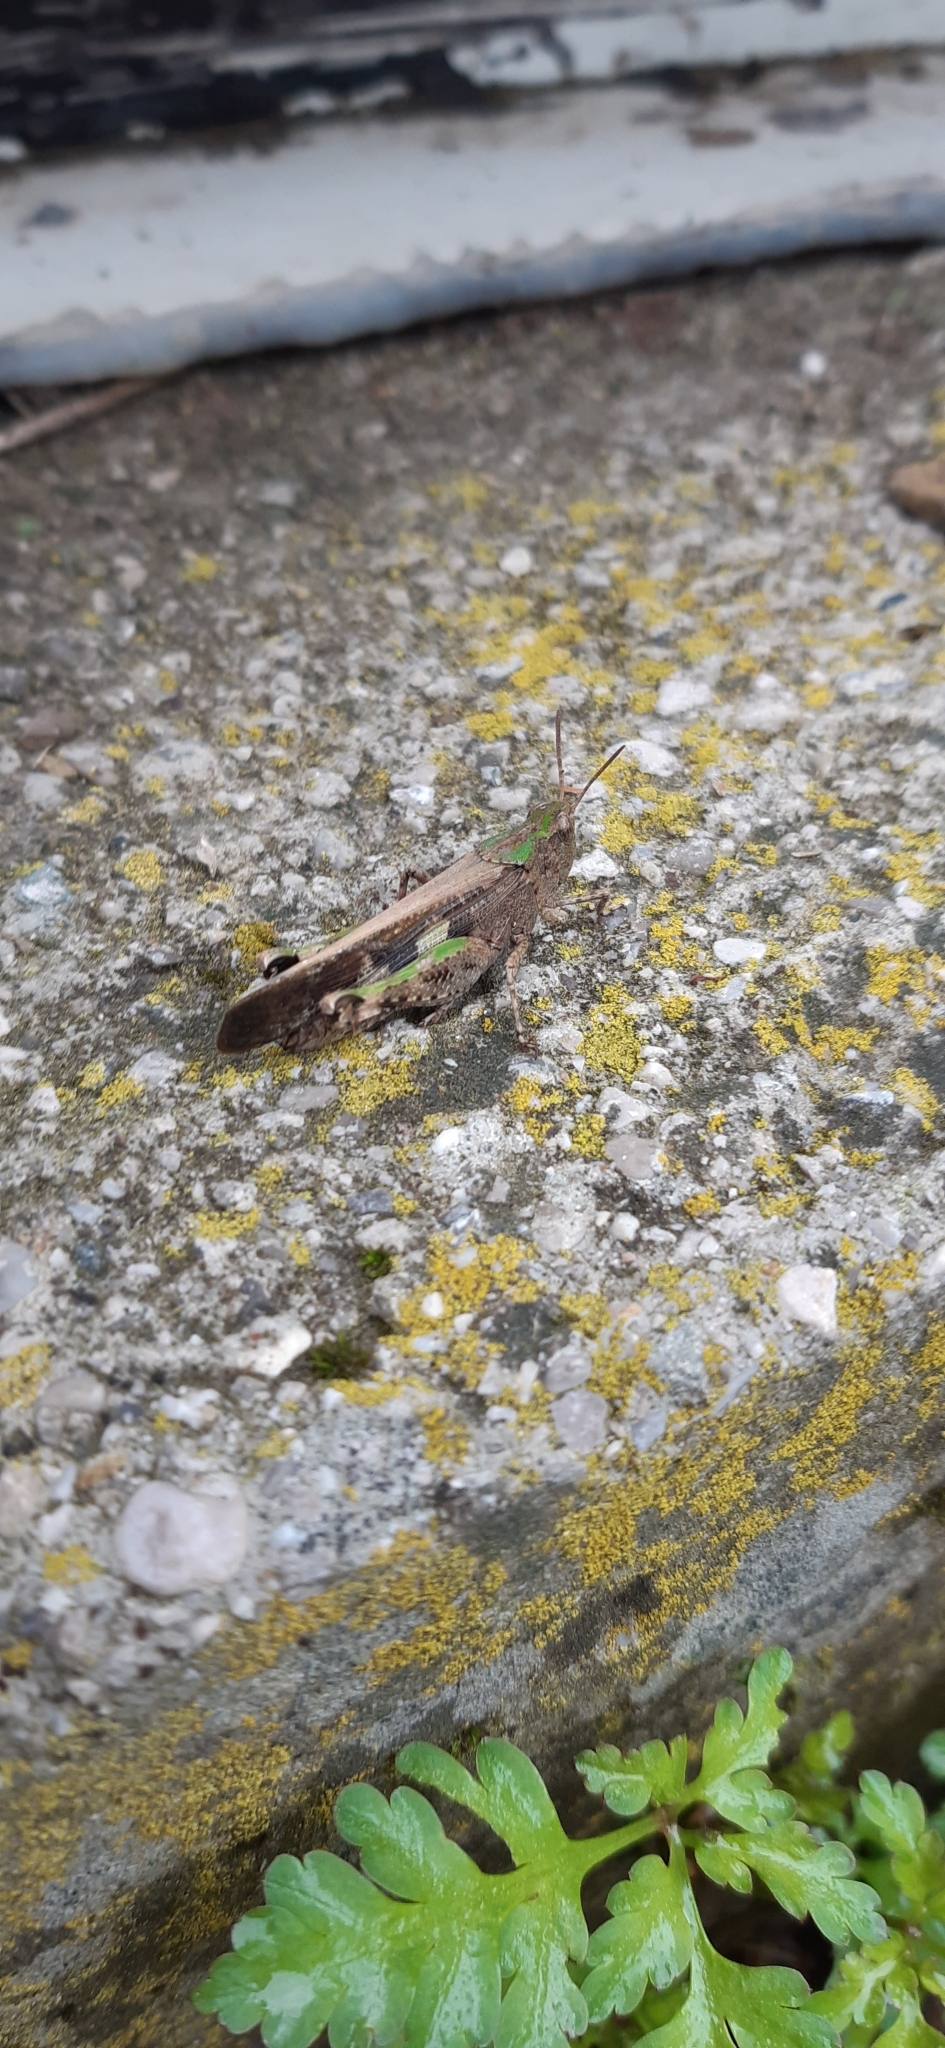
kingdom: Animalia
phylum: Arthropoda
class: Insecta
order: Orthoptera
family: Acrididae
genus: Aiolopus
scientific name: Aiolopus strepens
